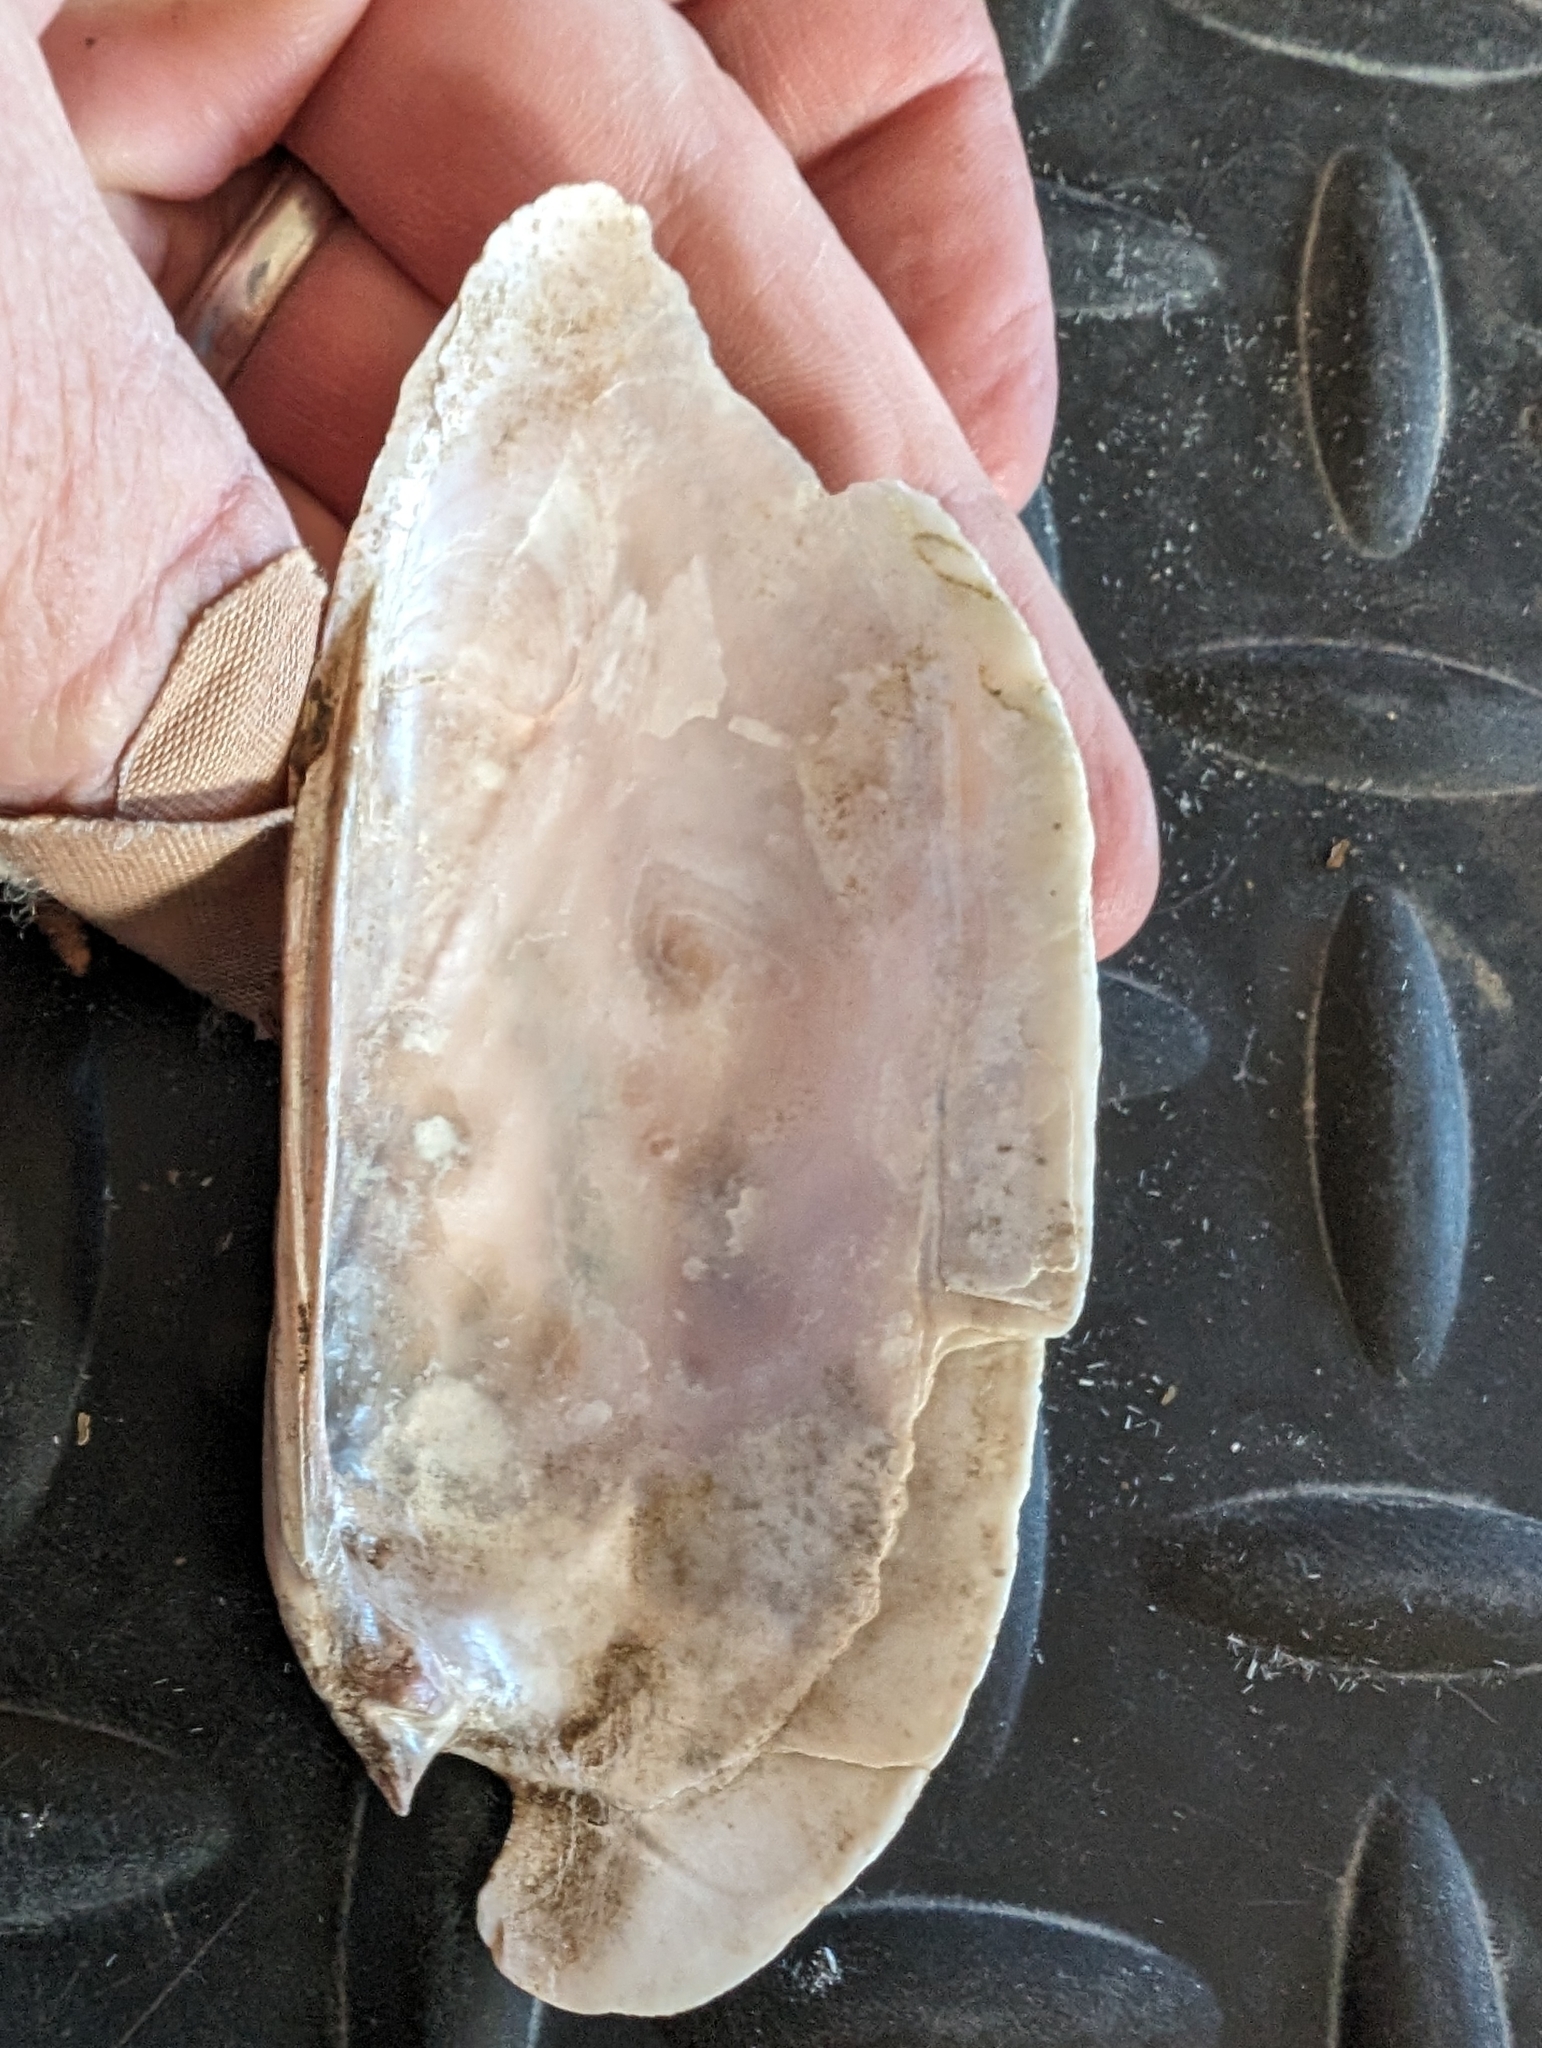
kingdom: Animalia
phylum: Mollusca
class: Bivalvia
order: Unionida
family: Unionidae
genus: Ligumia
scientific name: Ligumia recta
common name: Black sandshell
